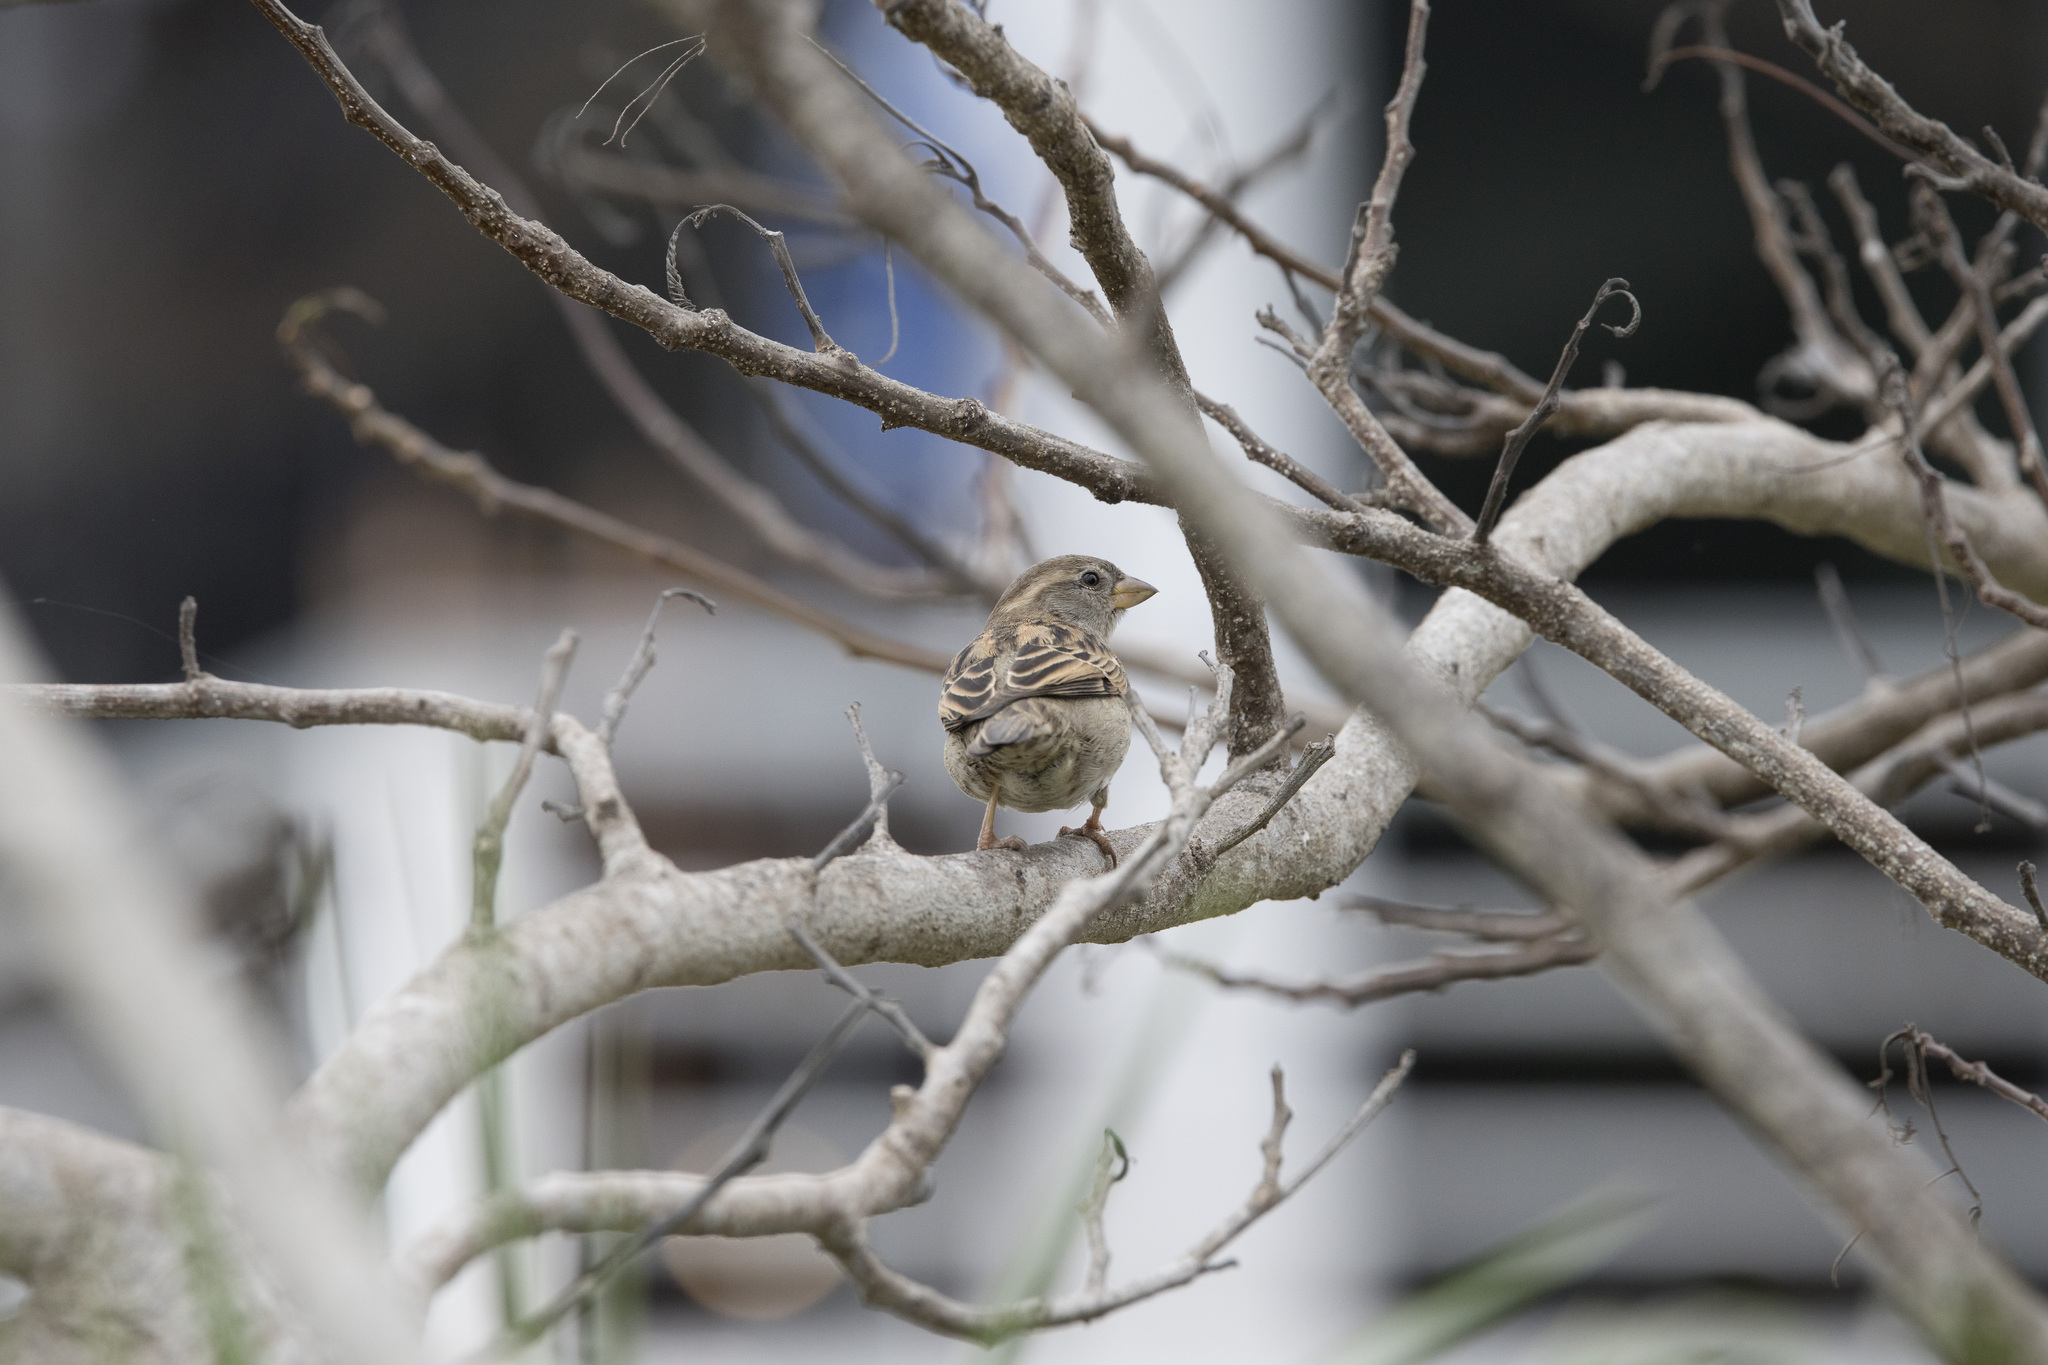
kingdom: Animalia
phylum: Chordata
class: Aves
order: Passeriformes
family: Passeridae
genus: Passer
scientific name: Passer domesticus
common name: House sparrow
